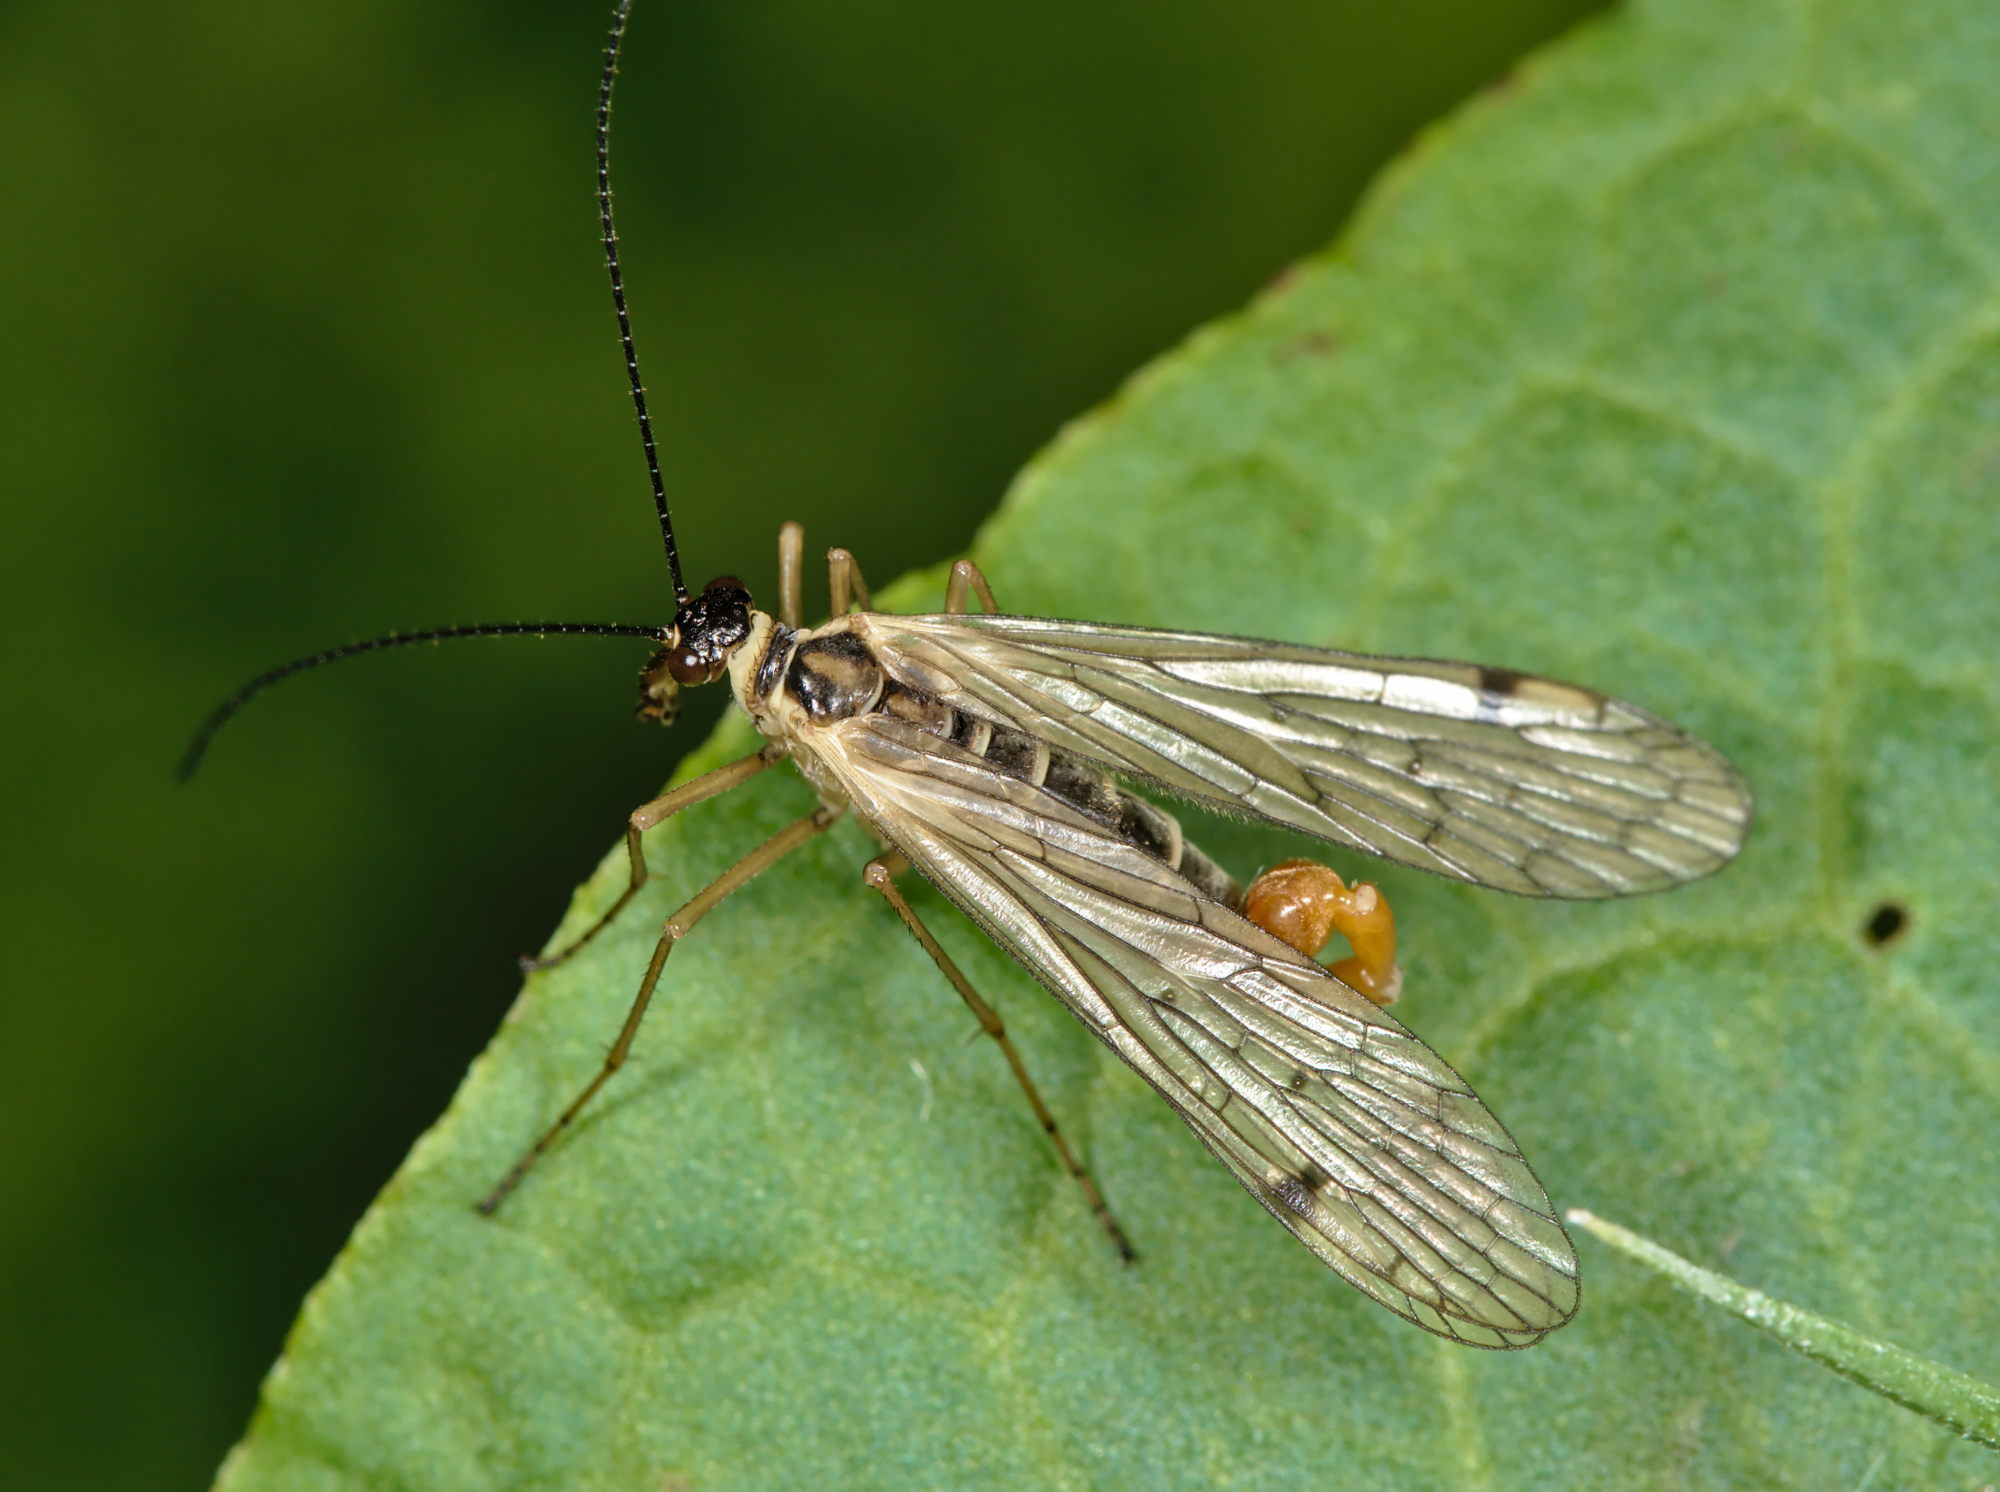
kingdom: Animalia
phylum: Arthropoda
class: Insecta
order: Mecoptera
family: Panorpidae
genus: Panorpa
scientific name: Panorpa alpina
